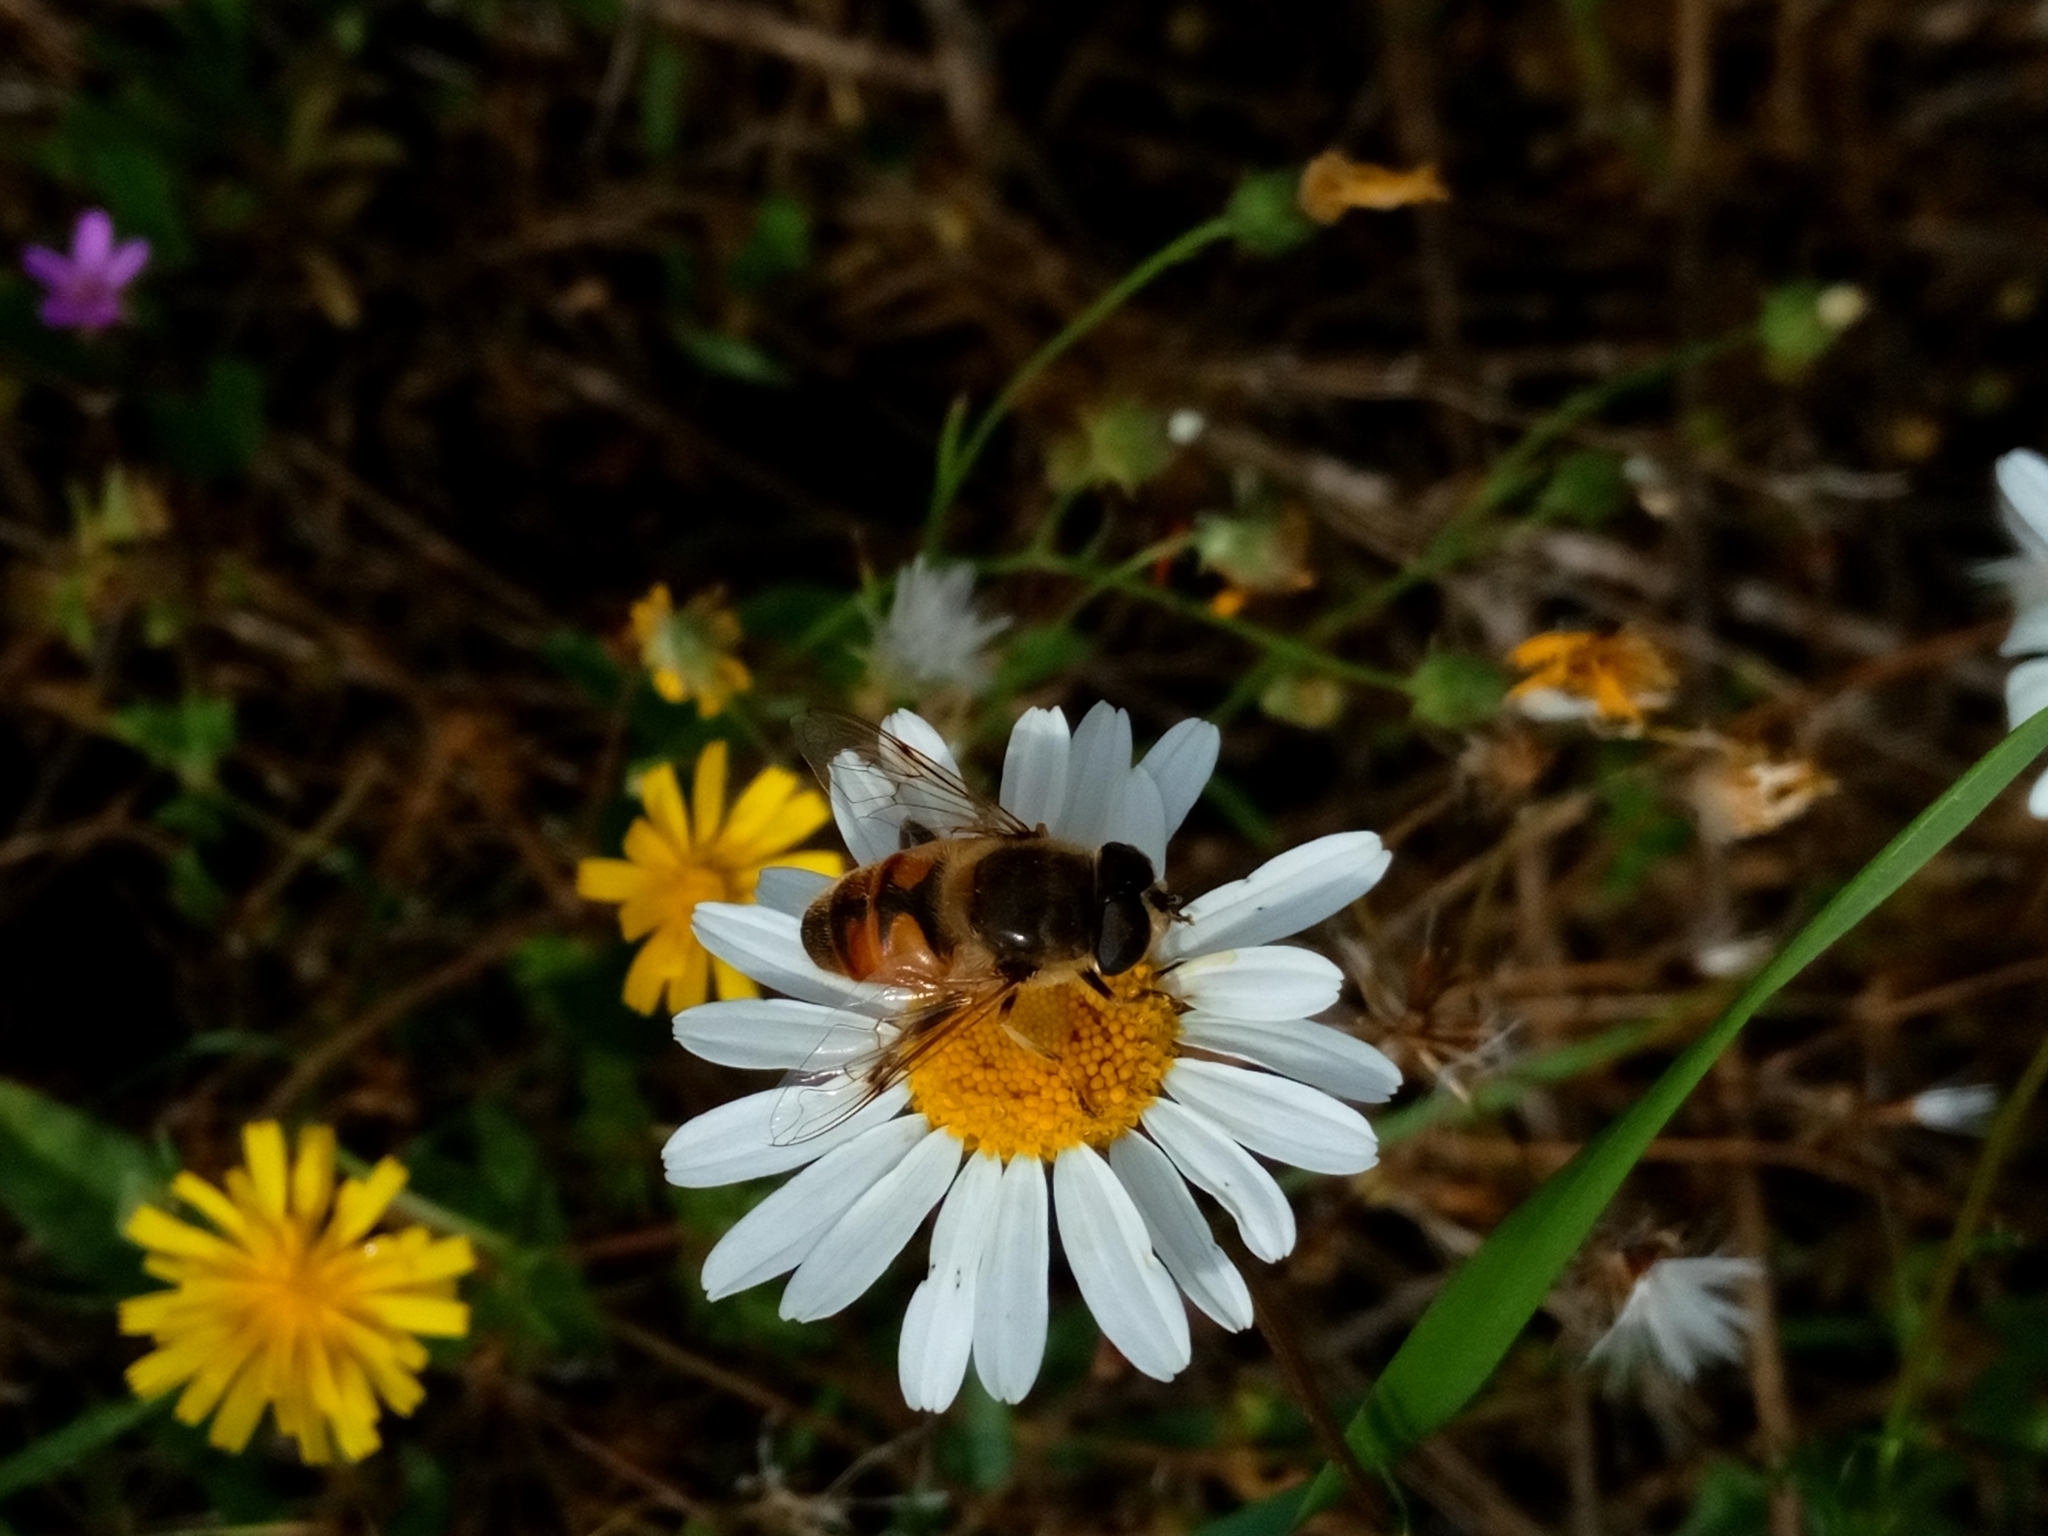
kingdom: Animalia
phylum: Arthropoda
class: Insecta
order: Diptera
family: Syrphidae
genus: Eristalis
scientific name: Eristalis tenax
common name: Drone fly
